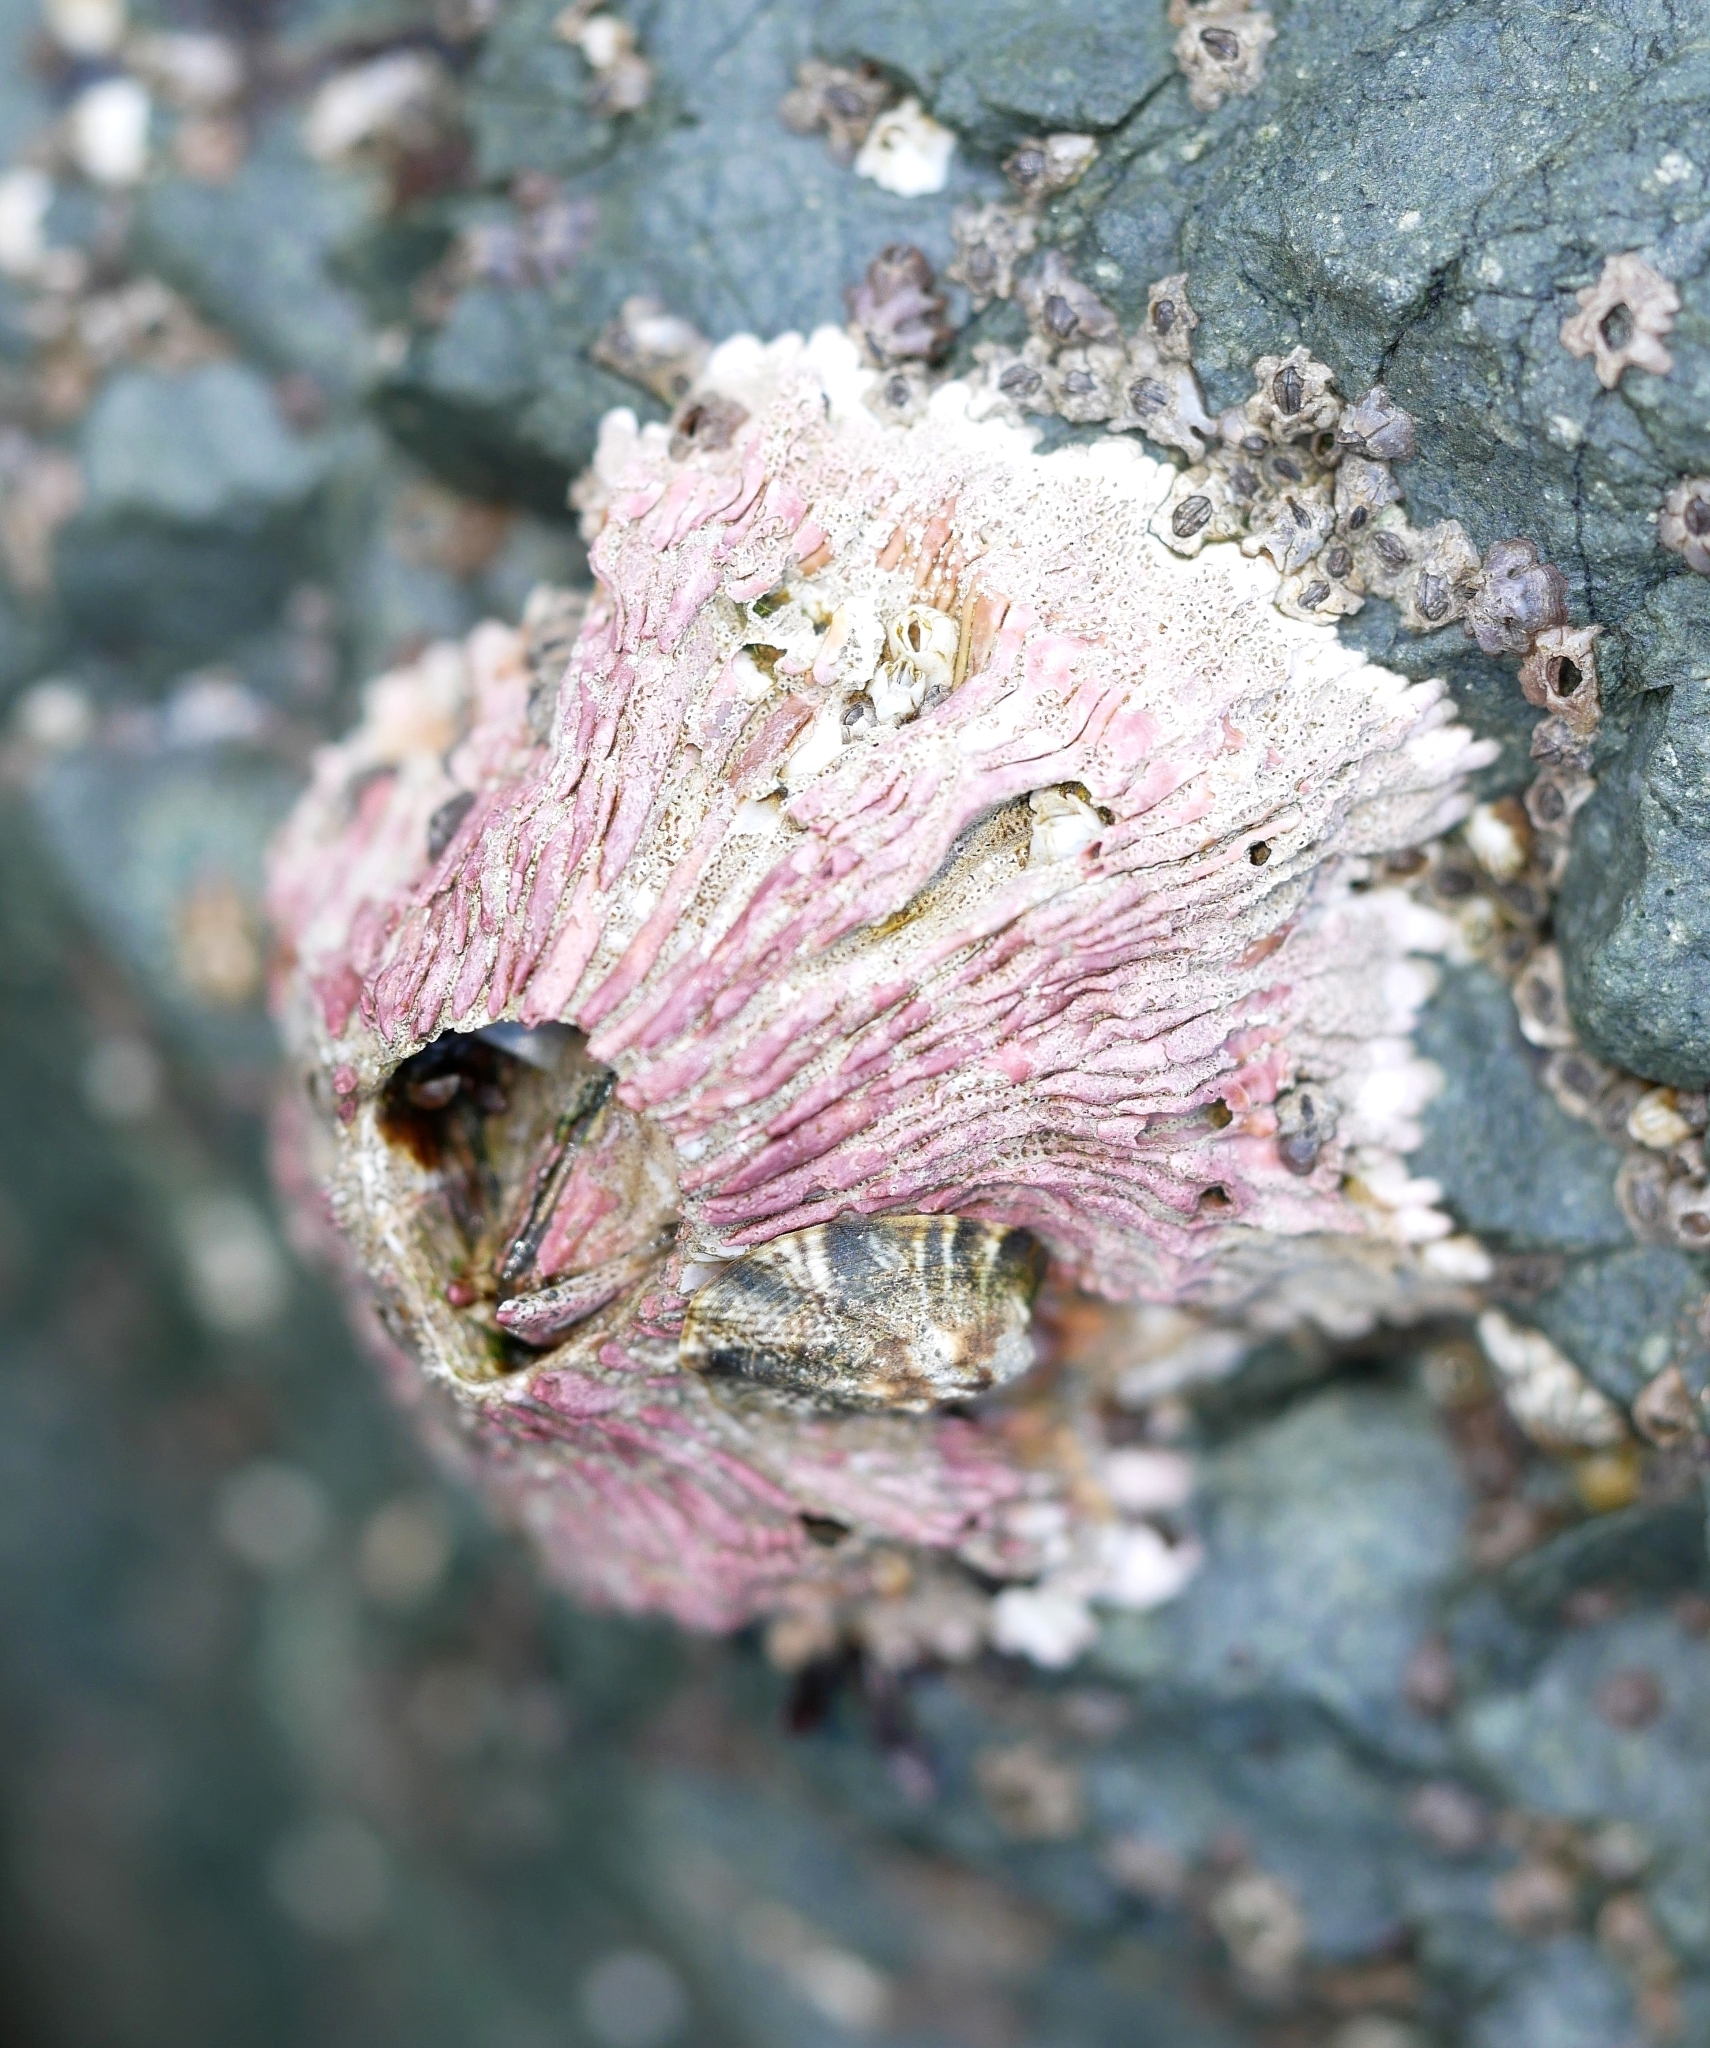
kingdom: Animalia
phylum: Arthropoda
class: Maxillopoda
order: Sessilia
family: Tetraclitidae
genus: Tetraclita
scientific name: Tetraclita rubescens
